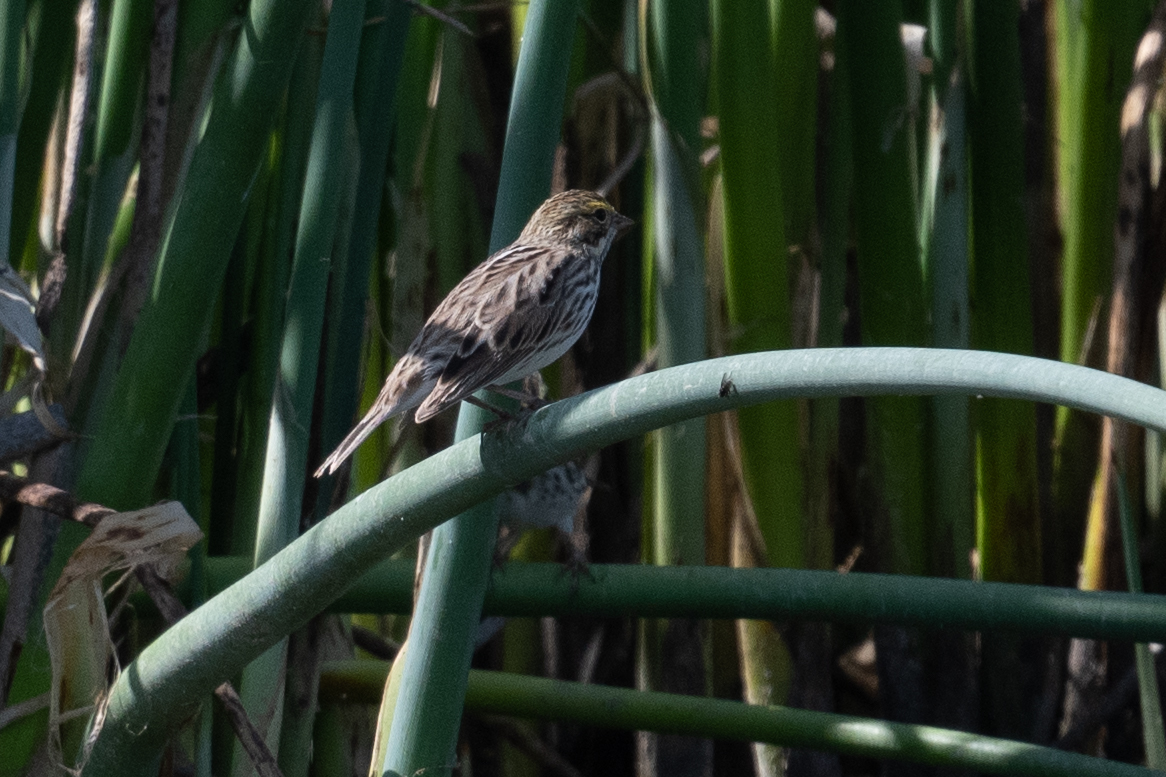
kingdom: Animalia
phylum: Chordata
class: Aves
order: Passeriformes
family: Passerellidae
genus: Passerculus
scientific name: Passerculus sandwichensis
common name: Savannah sparrow
